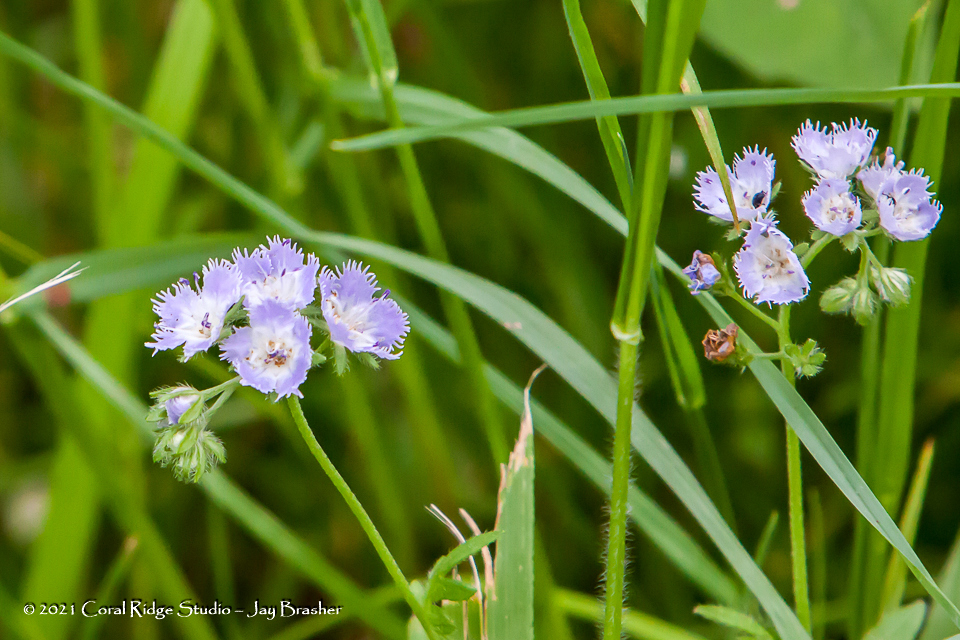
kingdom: Plantae
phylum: Tracheophyta
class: Magnoliopsida
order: Boraginales
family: Hydrophyllaceae
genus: Phacelia
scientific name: Phacelia purshii
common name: Miami-mist
